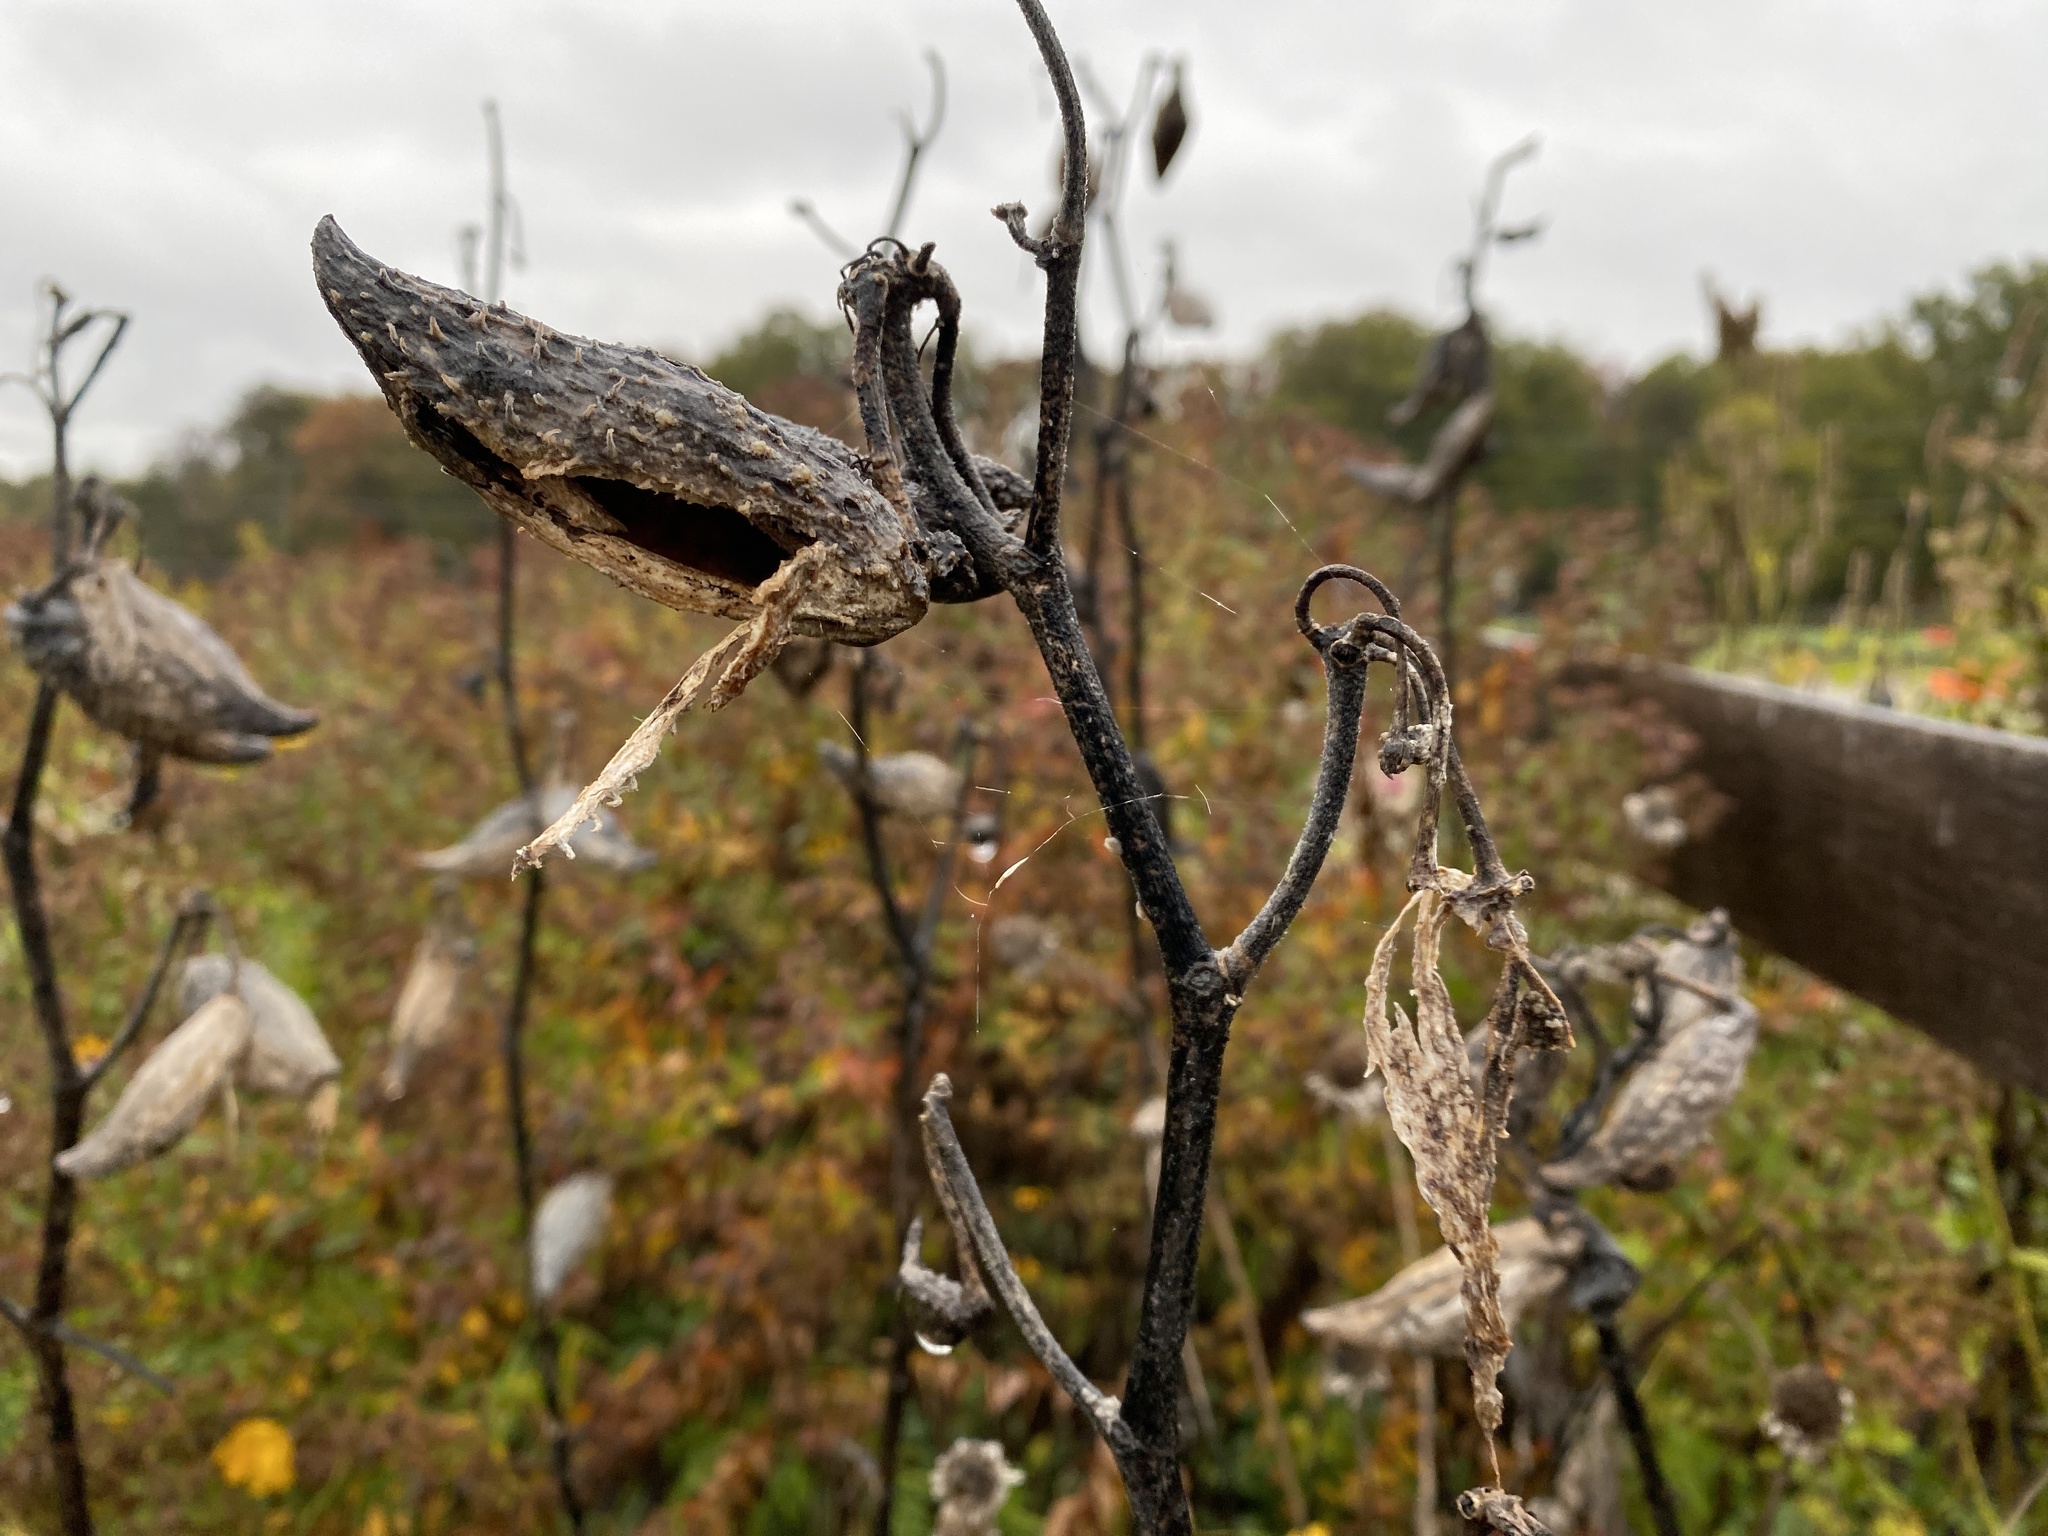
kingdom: Plantae
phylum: Tracheophyta
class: Magnoliopsida
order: Gentianales
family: Apocynaceae
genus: Asclepias
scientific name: Asclepias syriaca
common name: Common milkweed
